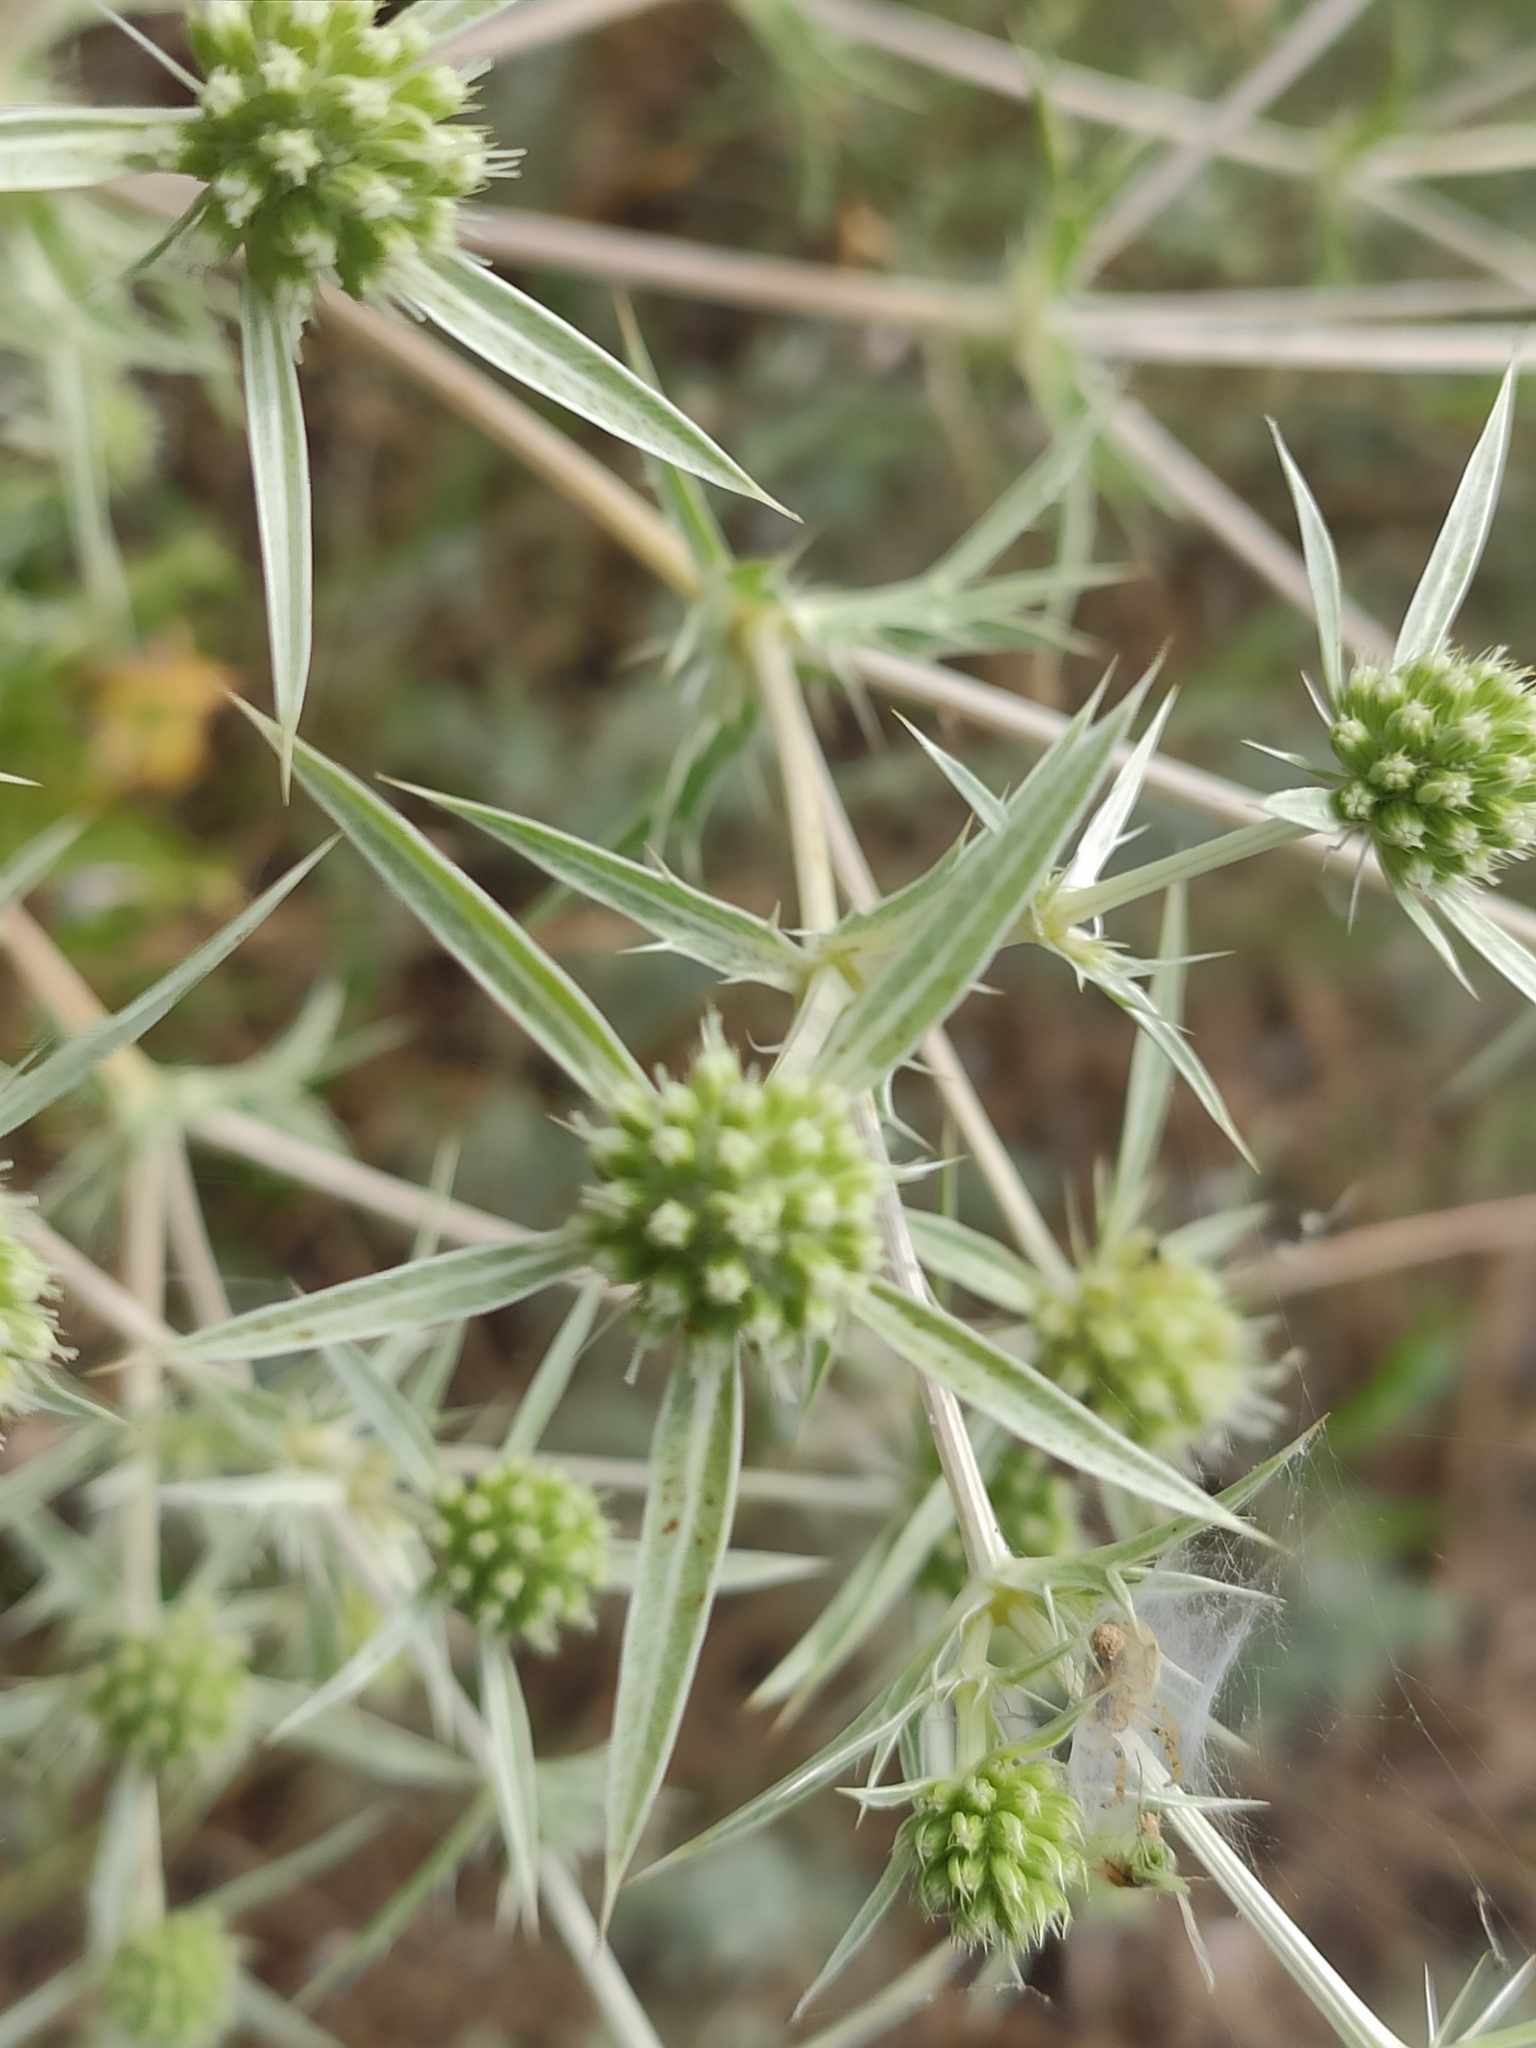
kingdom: Plantae
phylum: Tracheophyta
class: Magnoliopsida
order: Apiales
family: Apiaceae
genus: Eryngium
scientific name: Eryngium campestre
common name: Field eryngo
